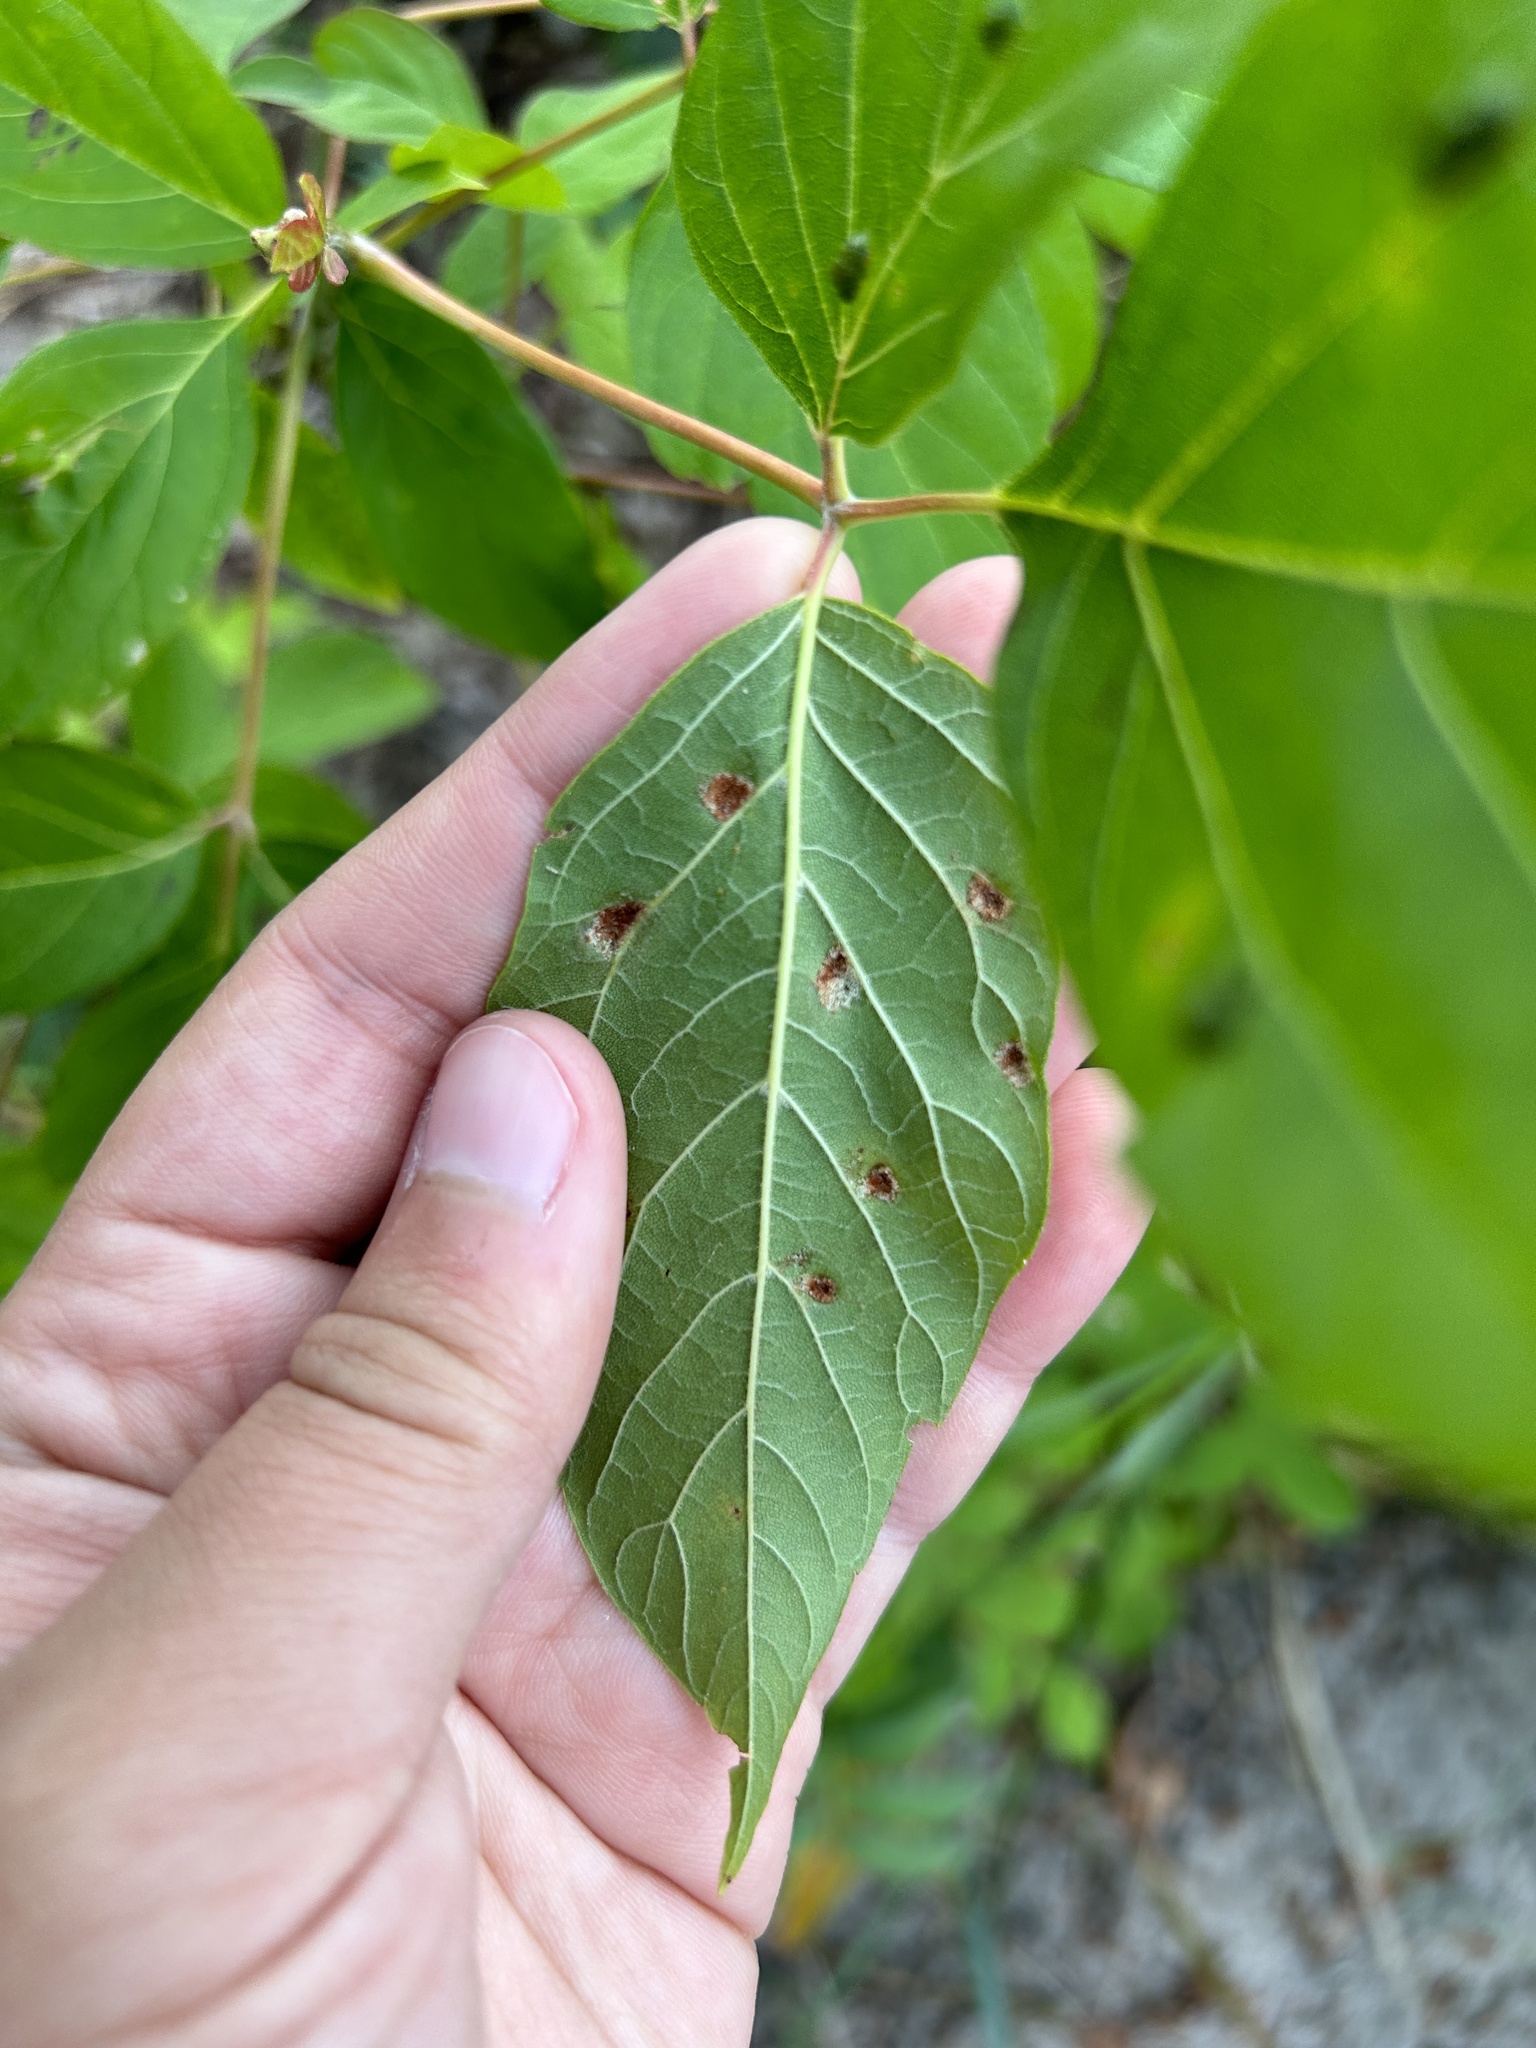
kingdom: Animalia
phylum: Arthropoda
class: Arachnida
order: Trombidiformes
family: Eriophyidae
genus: Aceria
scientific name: Aceria
